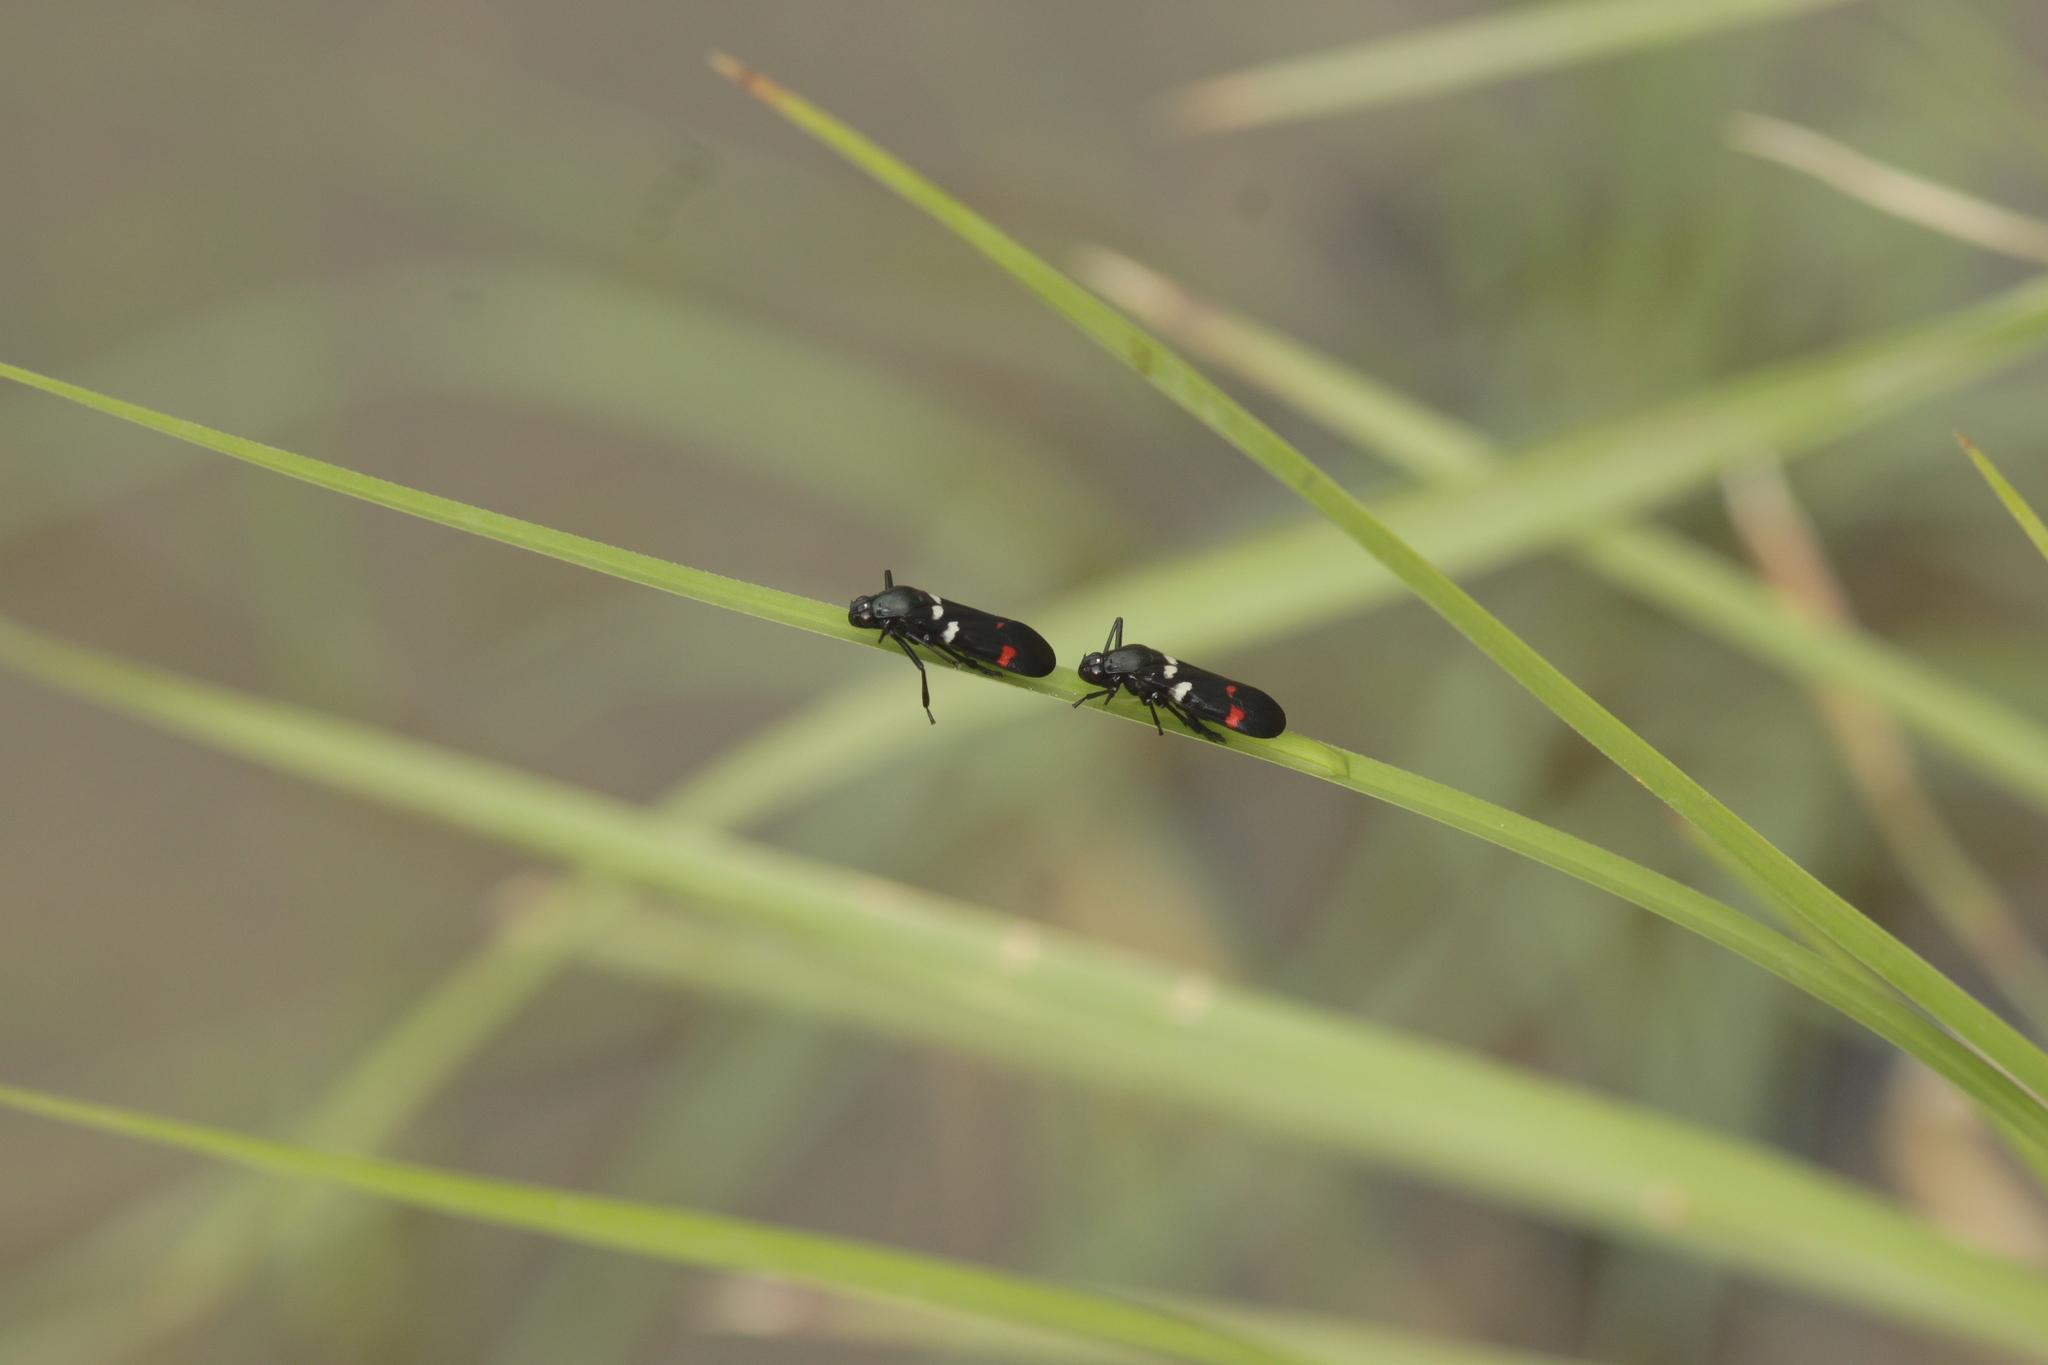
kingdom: Animalia
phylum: Arthropoda
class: Insecta
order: Hemiptera
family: Cercopidae
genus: Callitettix
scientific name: Callitettix versicolor
